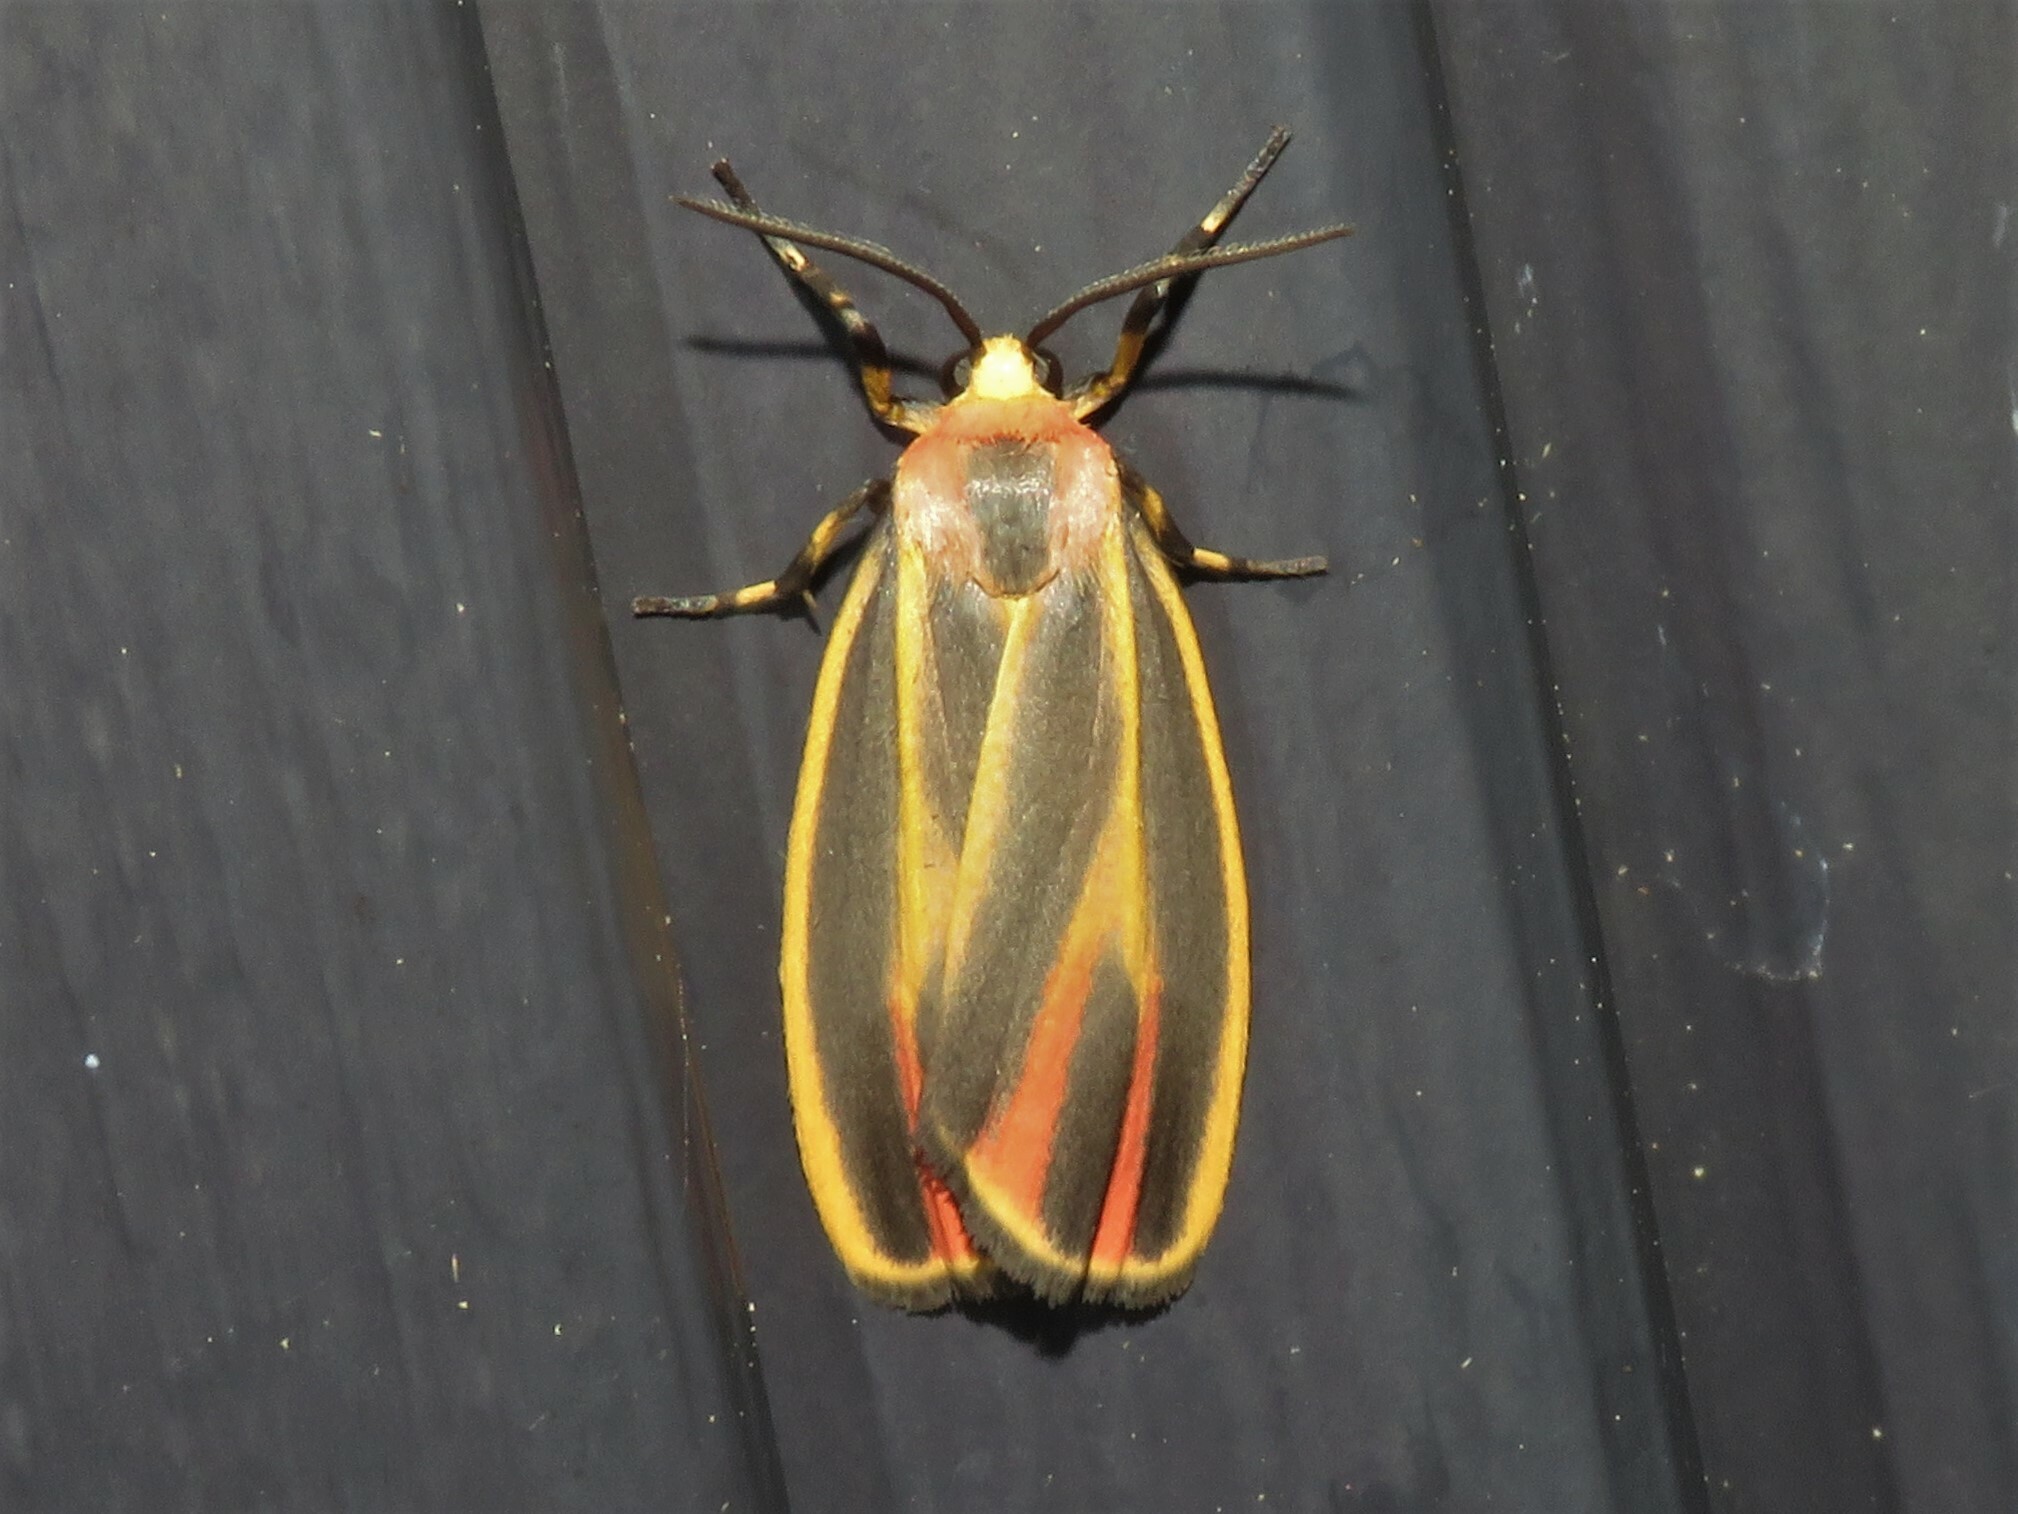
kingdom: Animalia
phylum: Arthropoda
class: Insecta
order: Lepidoptera
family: Erebidae
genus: Hypoprepia
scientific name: Hypoprepia fucosa
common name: Painted lichen moth
